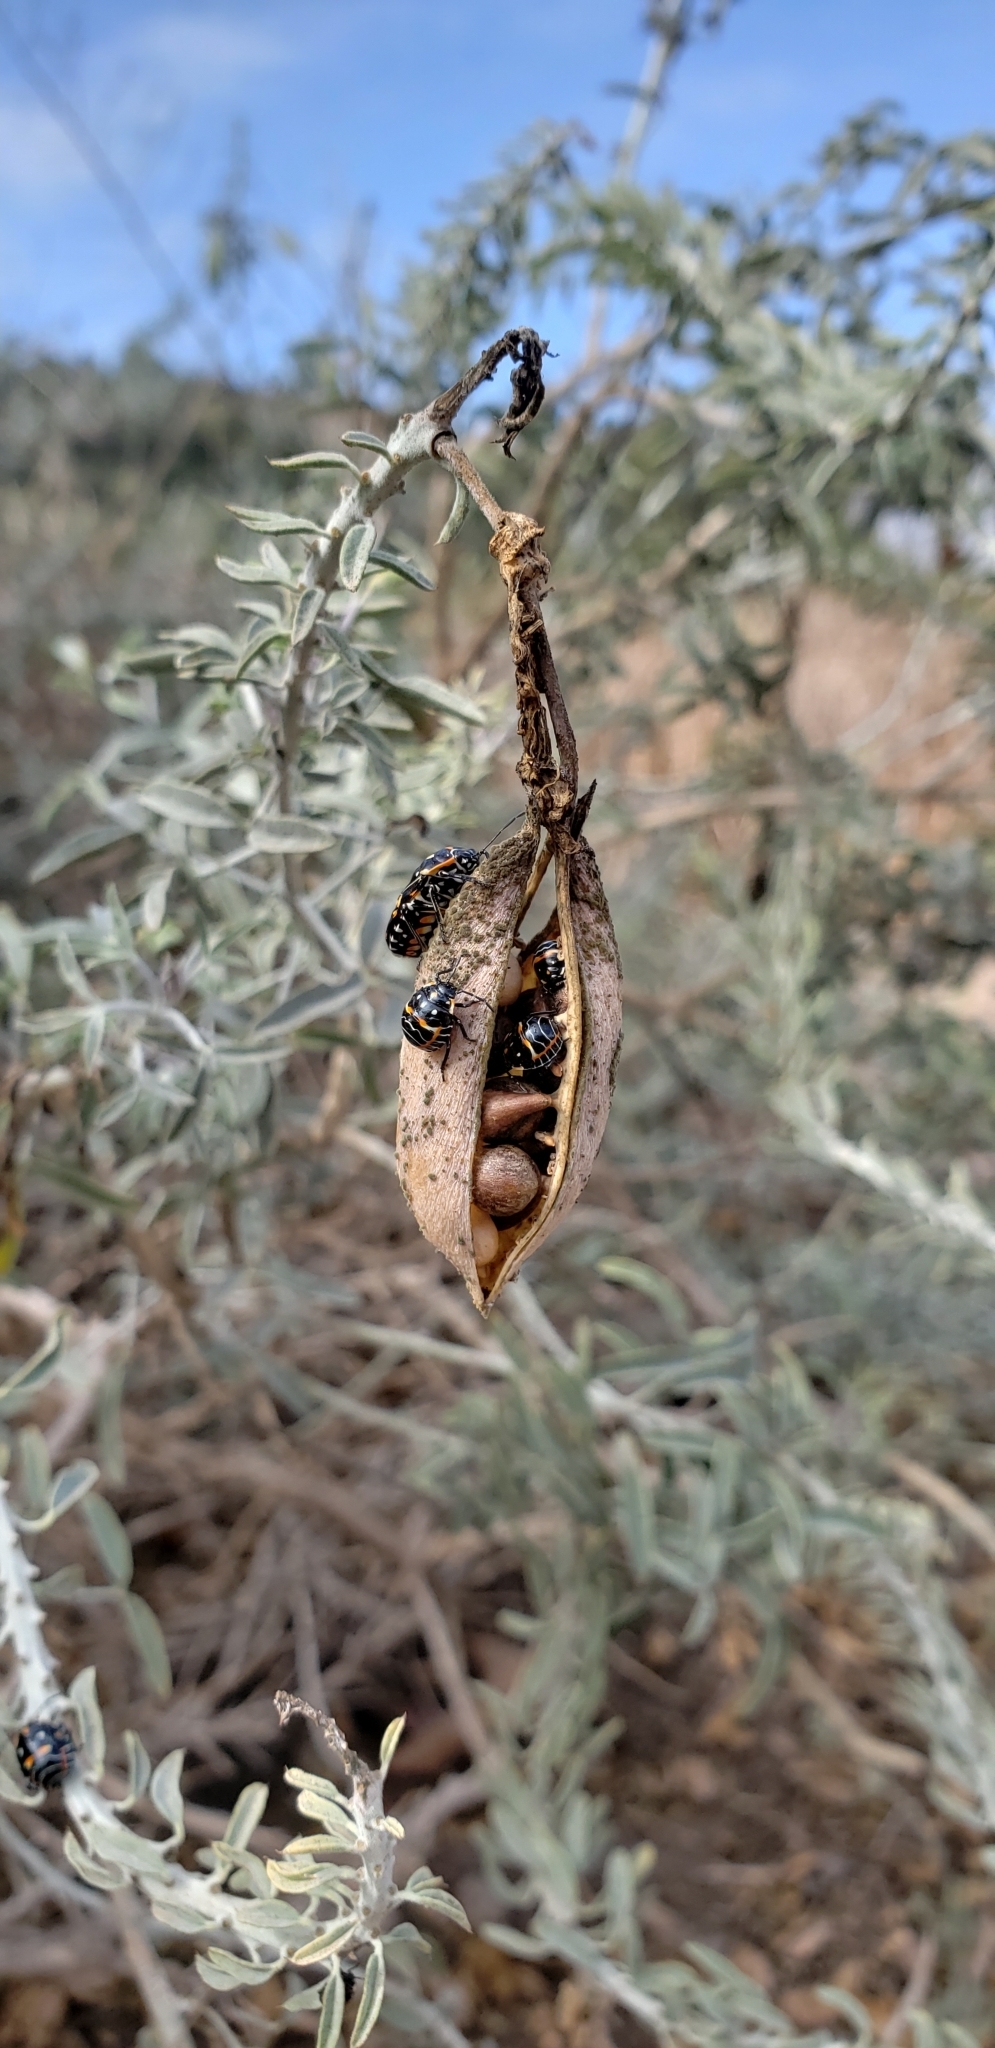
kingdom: Animalia
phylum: Arthropoda
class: Insecta
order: Hemiptera
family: Pentatomidae
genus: Murgantia
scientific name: Murgantia histrionica
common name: Harlequin bug
